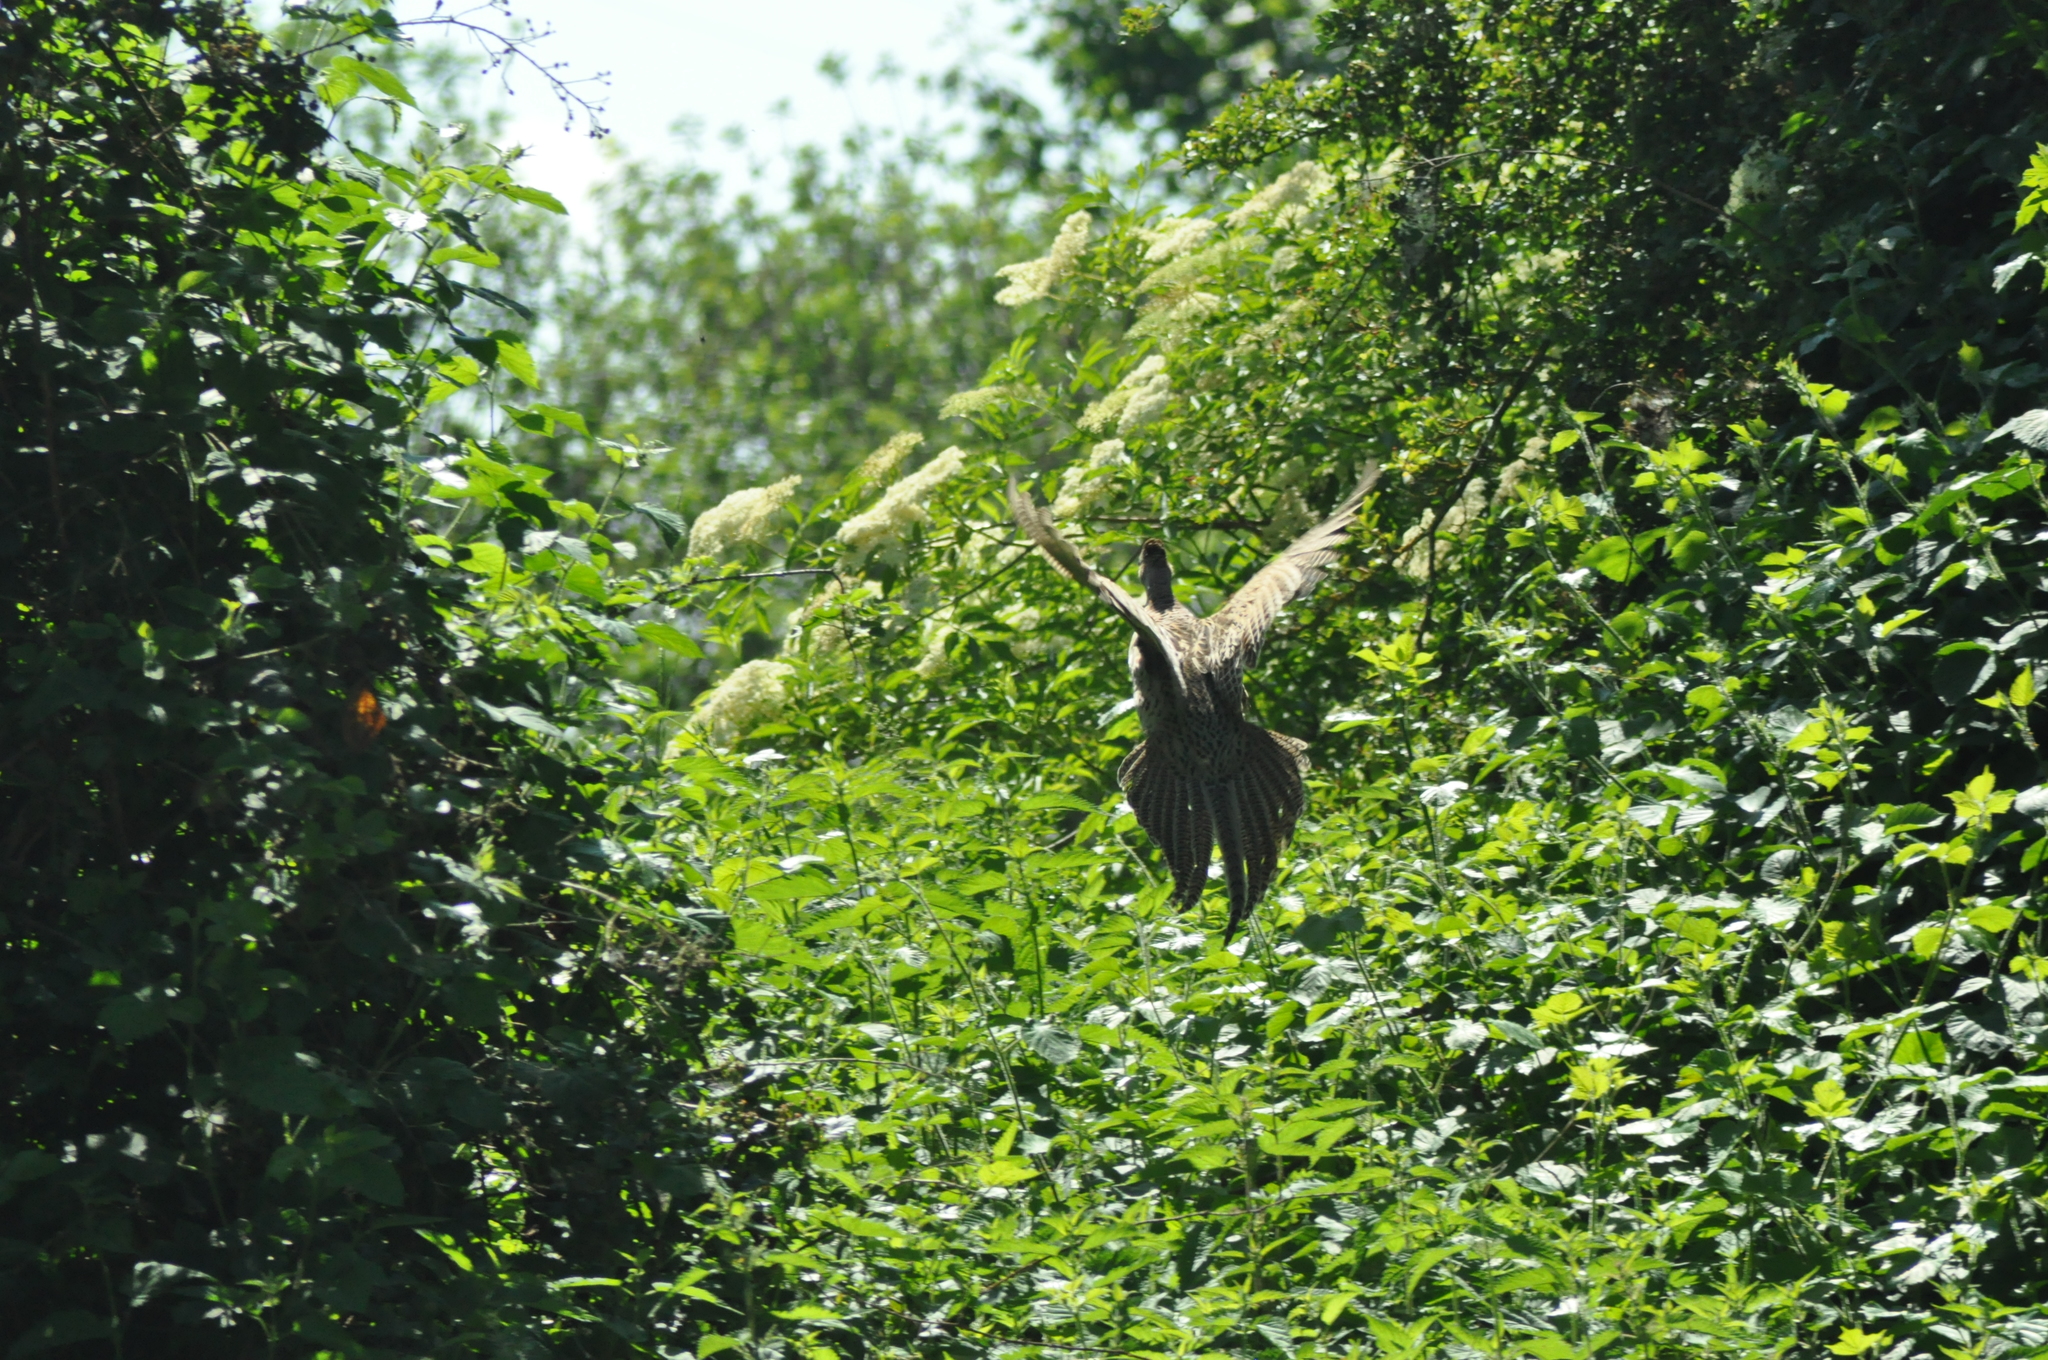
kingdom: Animalia
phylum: Chordata
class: Aves
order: Galliformes
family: Phasianidae
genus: Phasianus
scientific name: Phasianus colchicus
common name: Common pheasant
